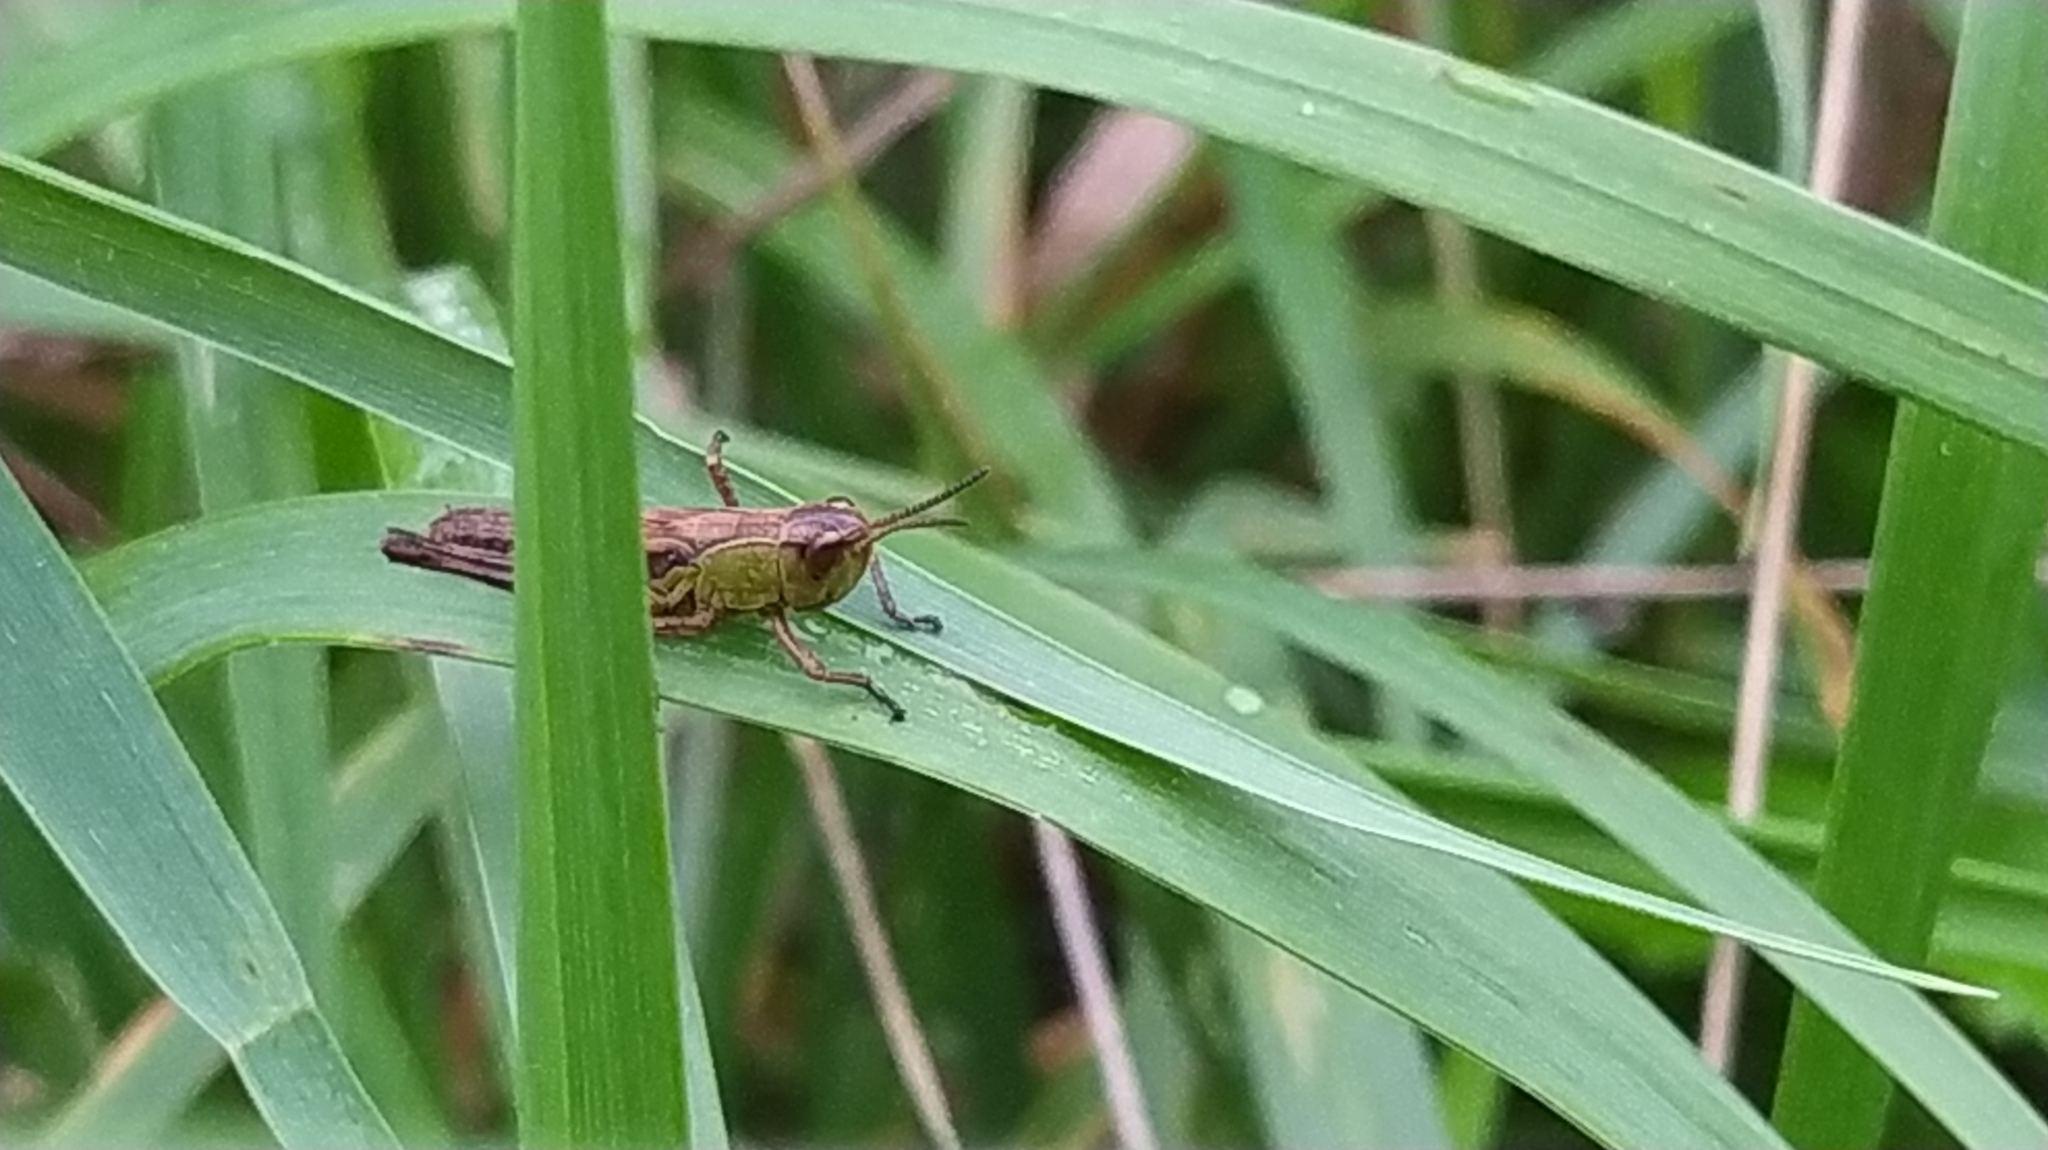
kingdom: Animalia
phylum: Arthropoda
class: Insecta
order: Orthoptera
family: Acrididae
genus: Pseudochorthippus
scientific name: Pseudochorthippus parallelus
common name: Meadow grasshopper
